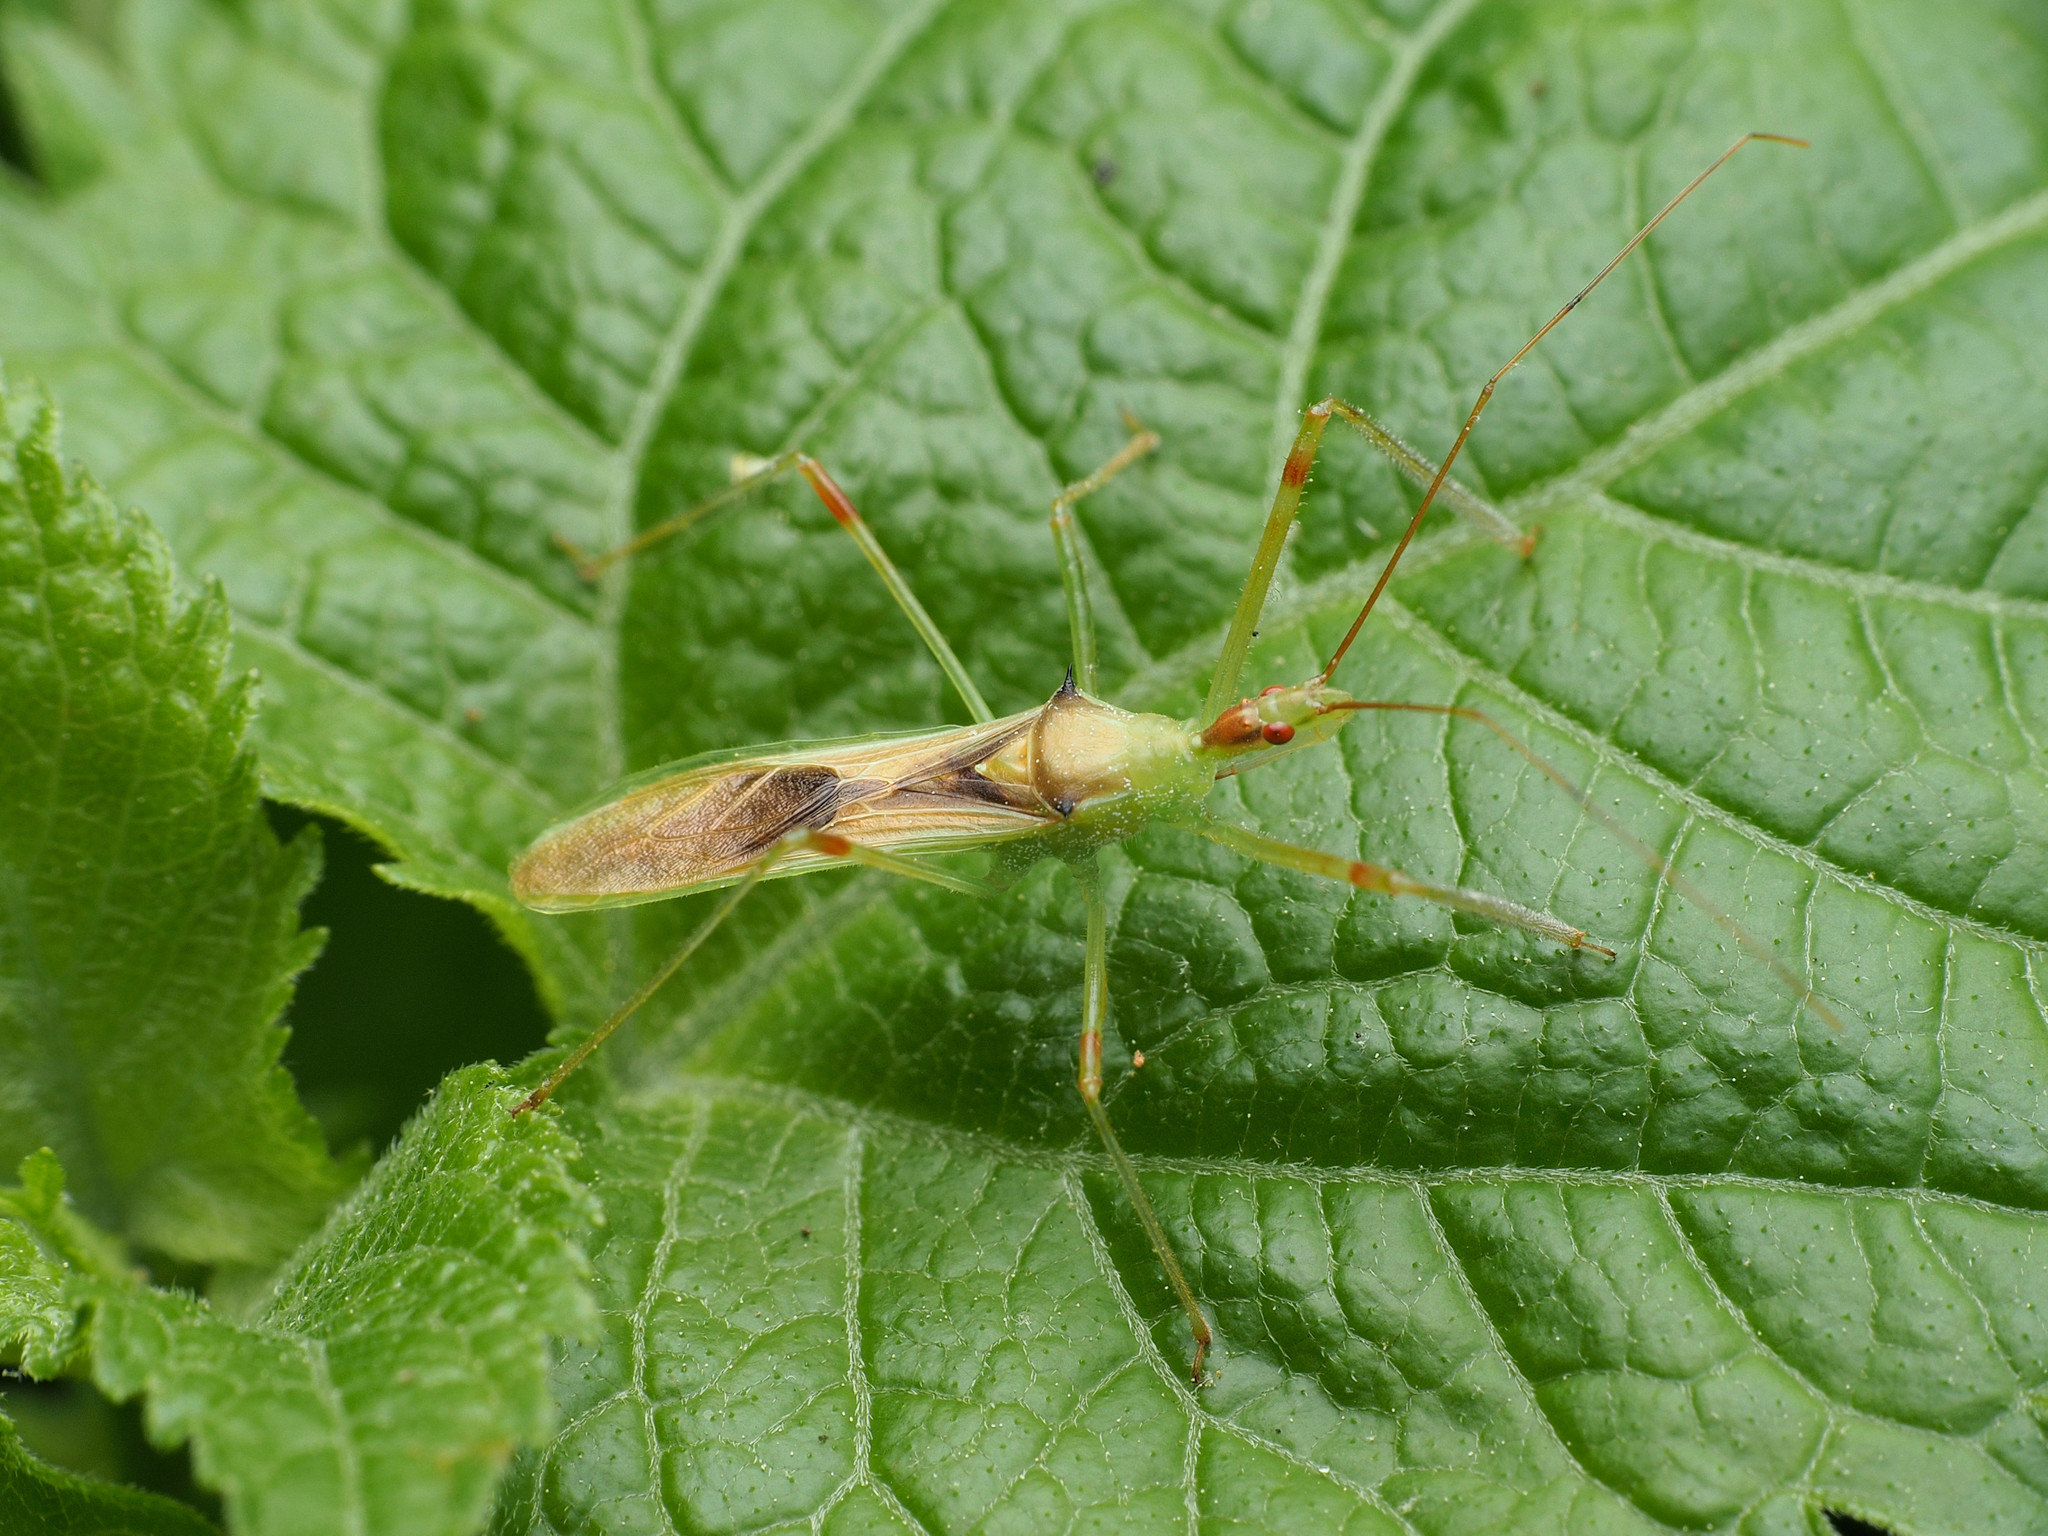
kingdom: Animalia
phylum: Arthropoda
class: Insecta
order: Hemiptera
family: Reduviidae
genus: Zelus
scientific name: Zelus luridus
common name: Pale green assassin bug
